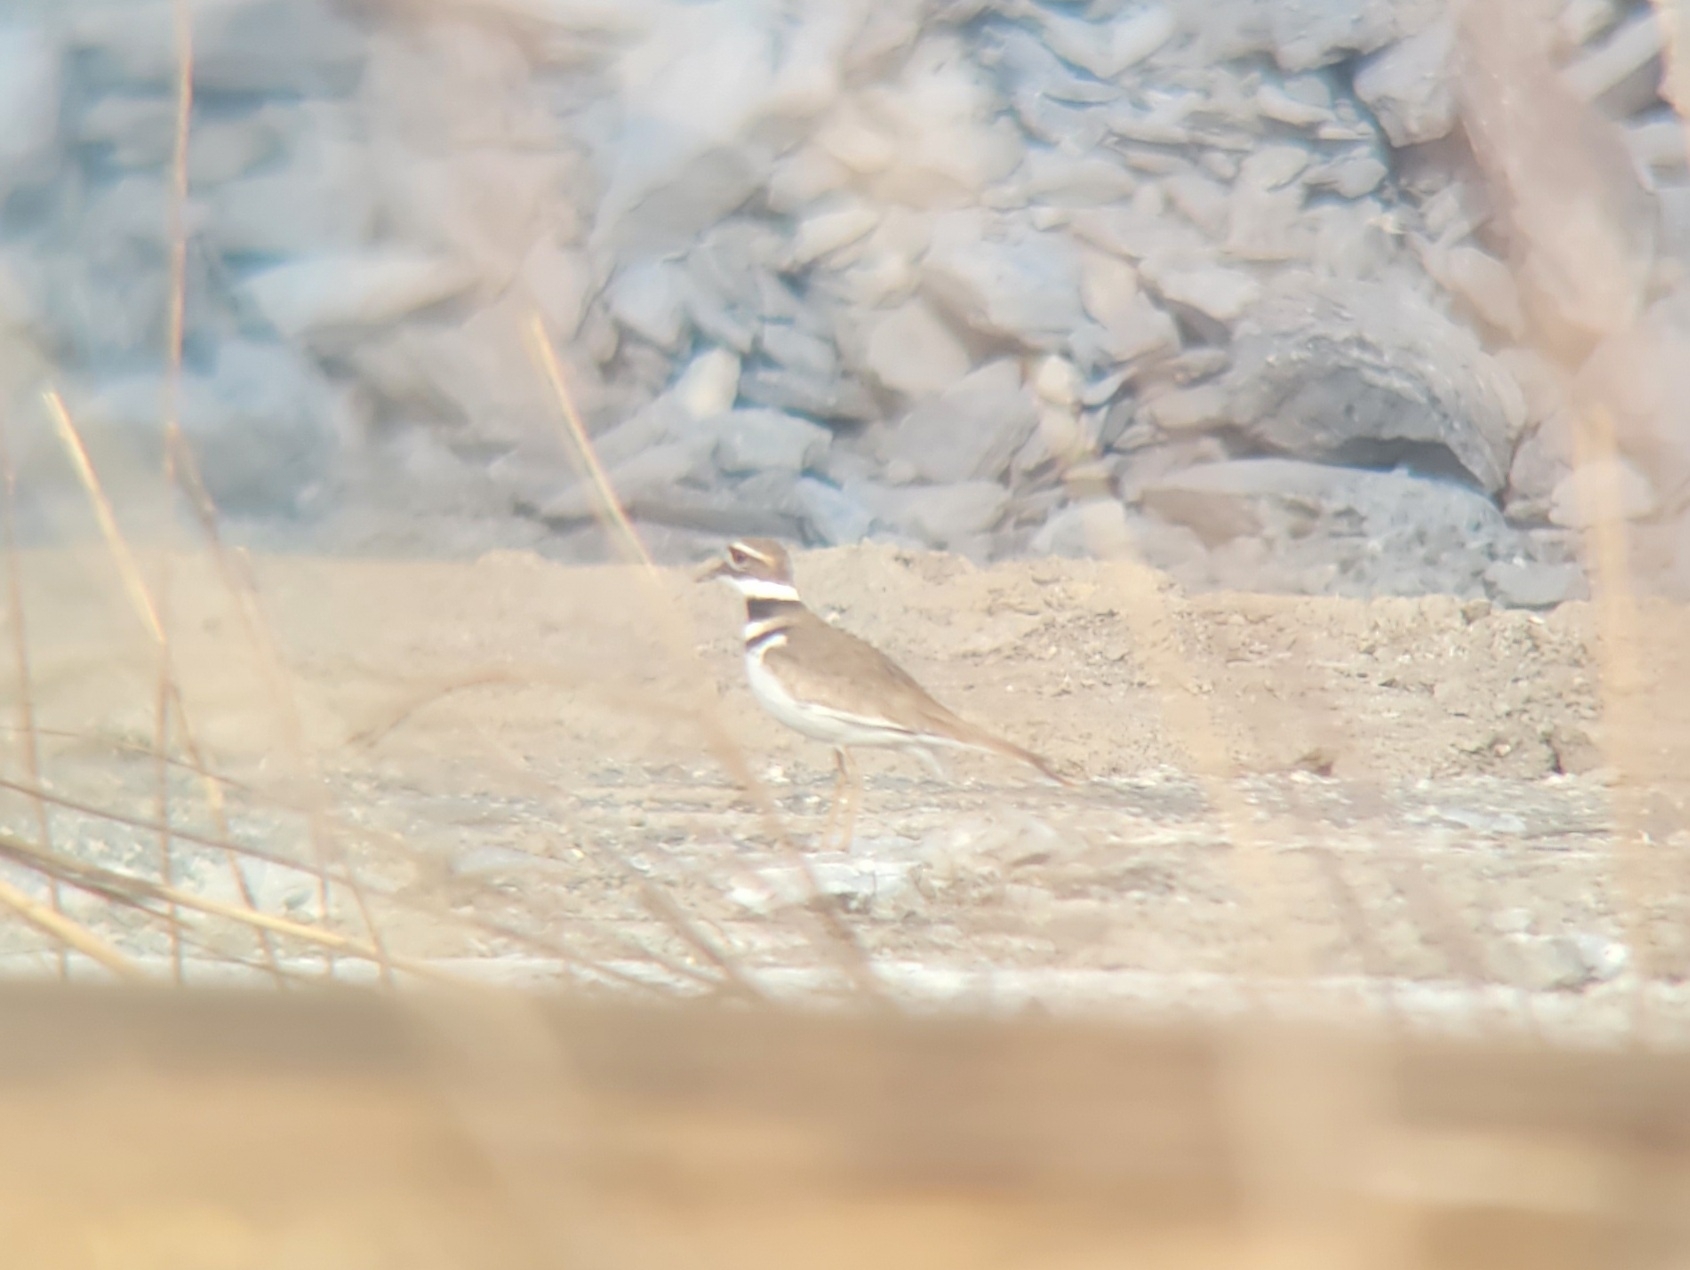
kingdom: Animalia
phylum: Chordata
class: Aves
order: Charadriiformes
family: Charadriidae
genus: Charadrius
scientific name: Charadrius vociferus
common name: Killdeer
